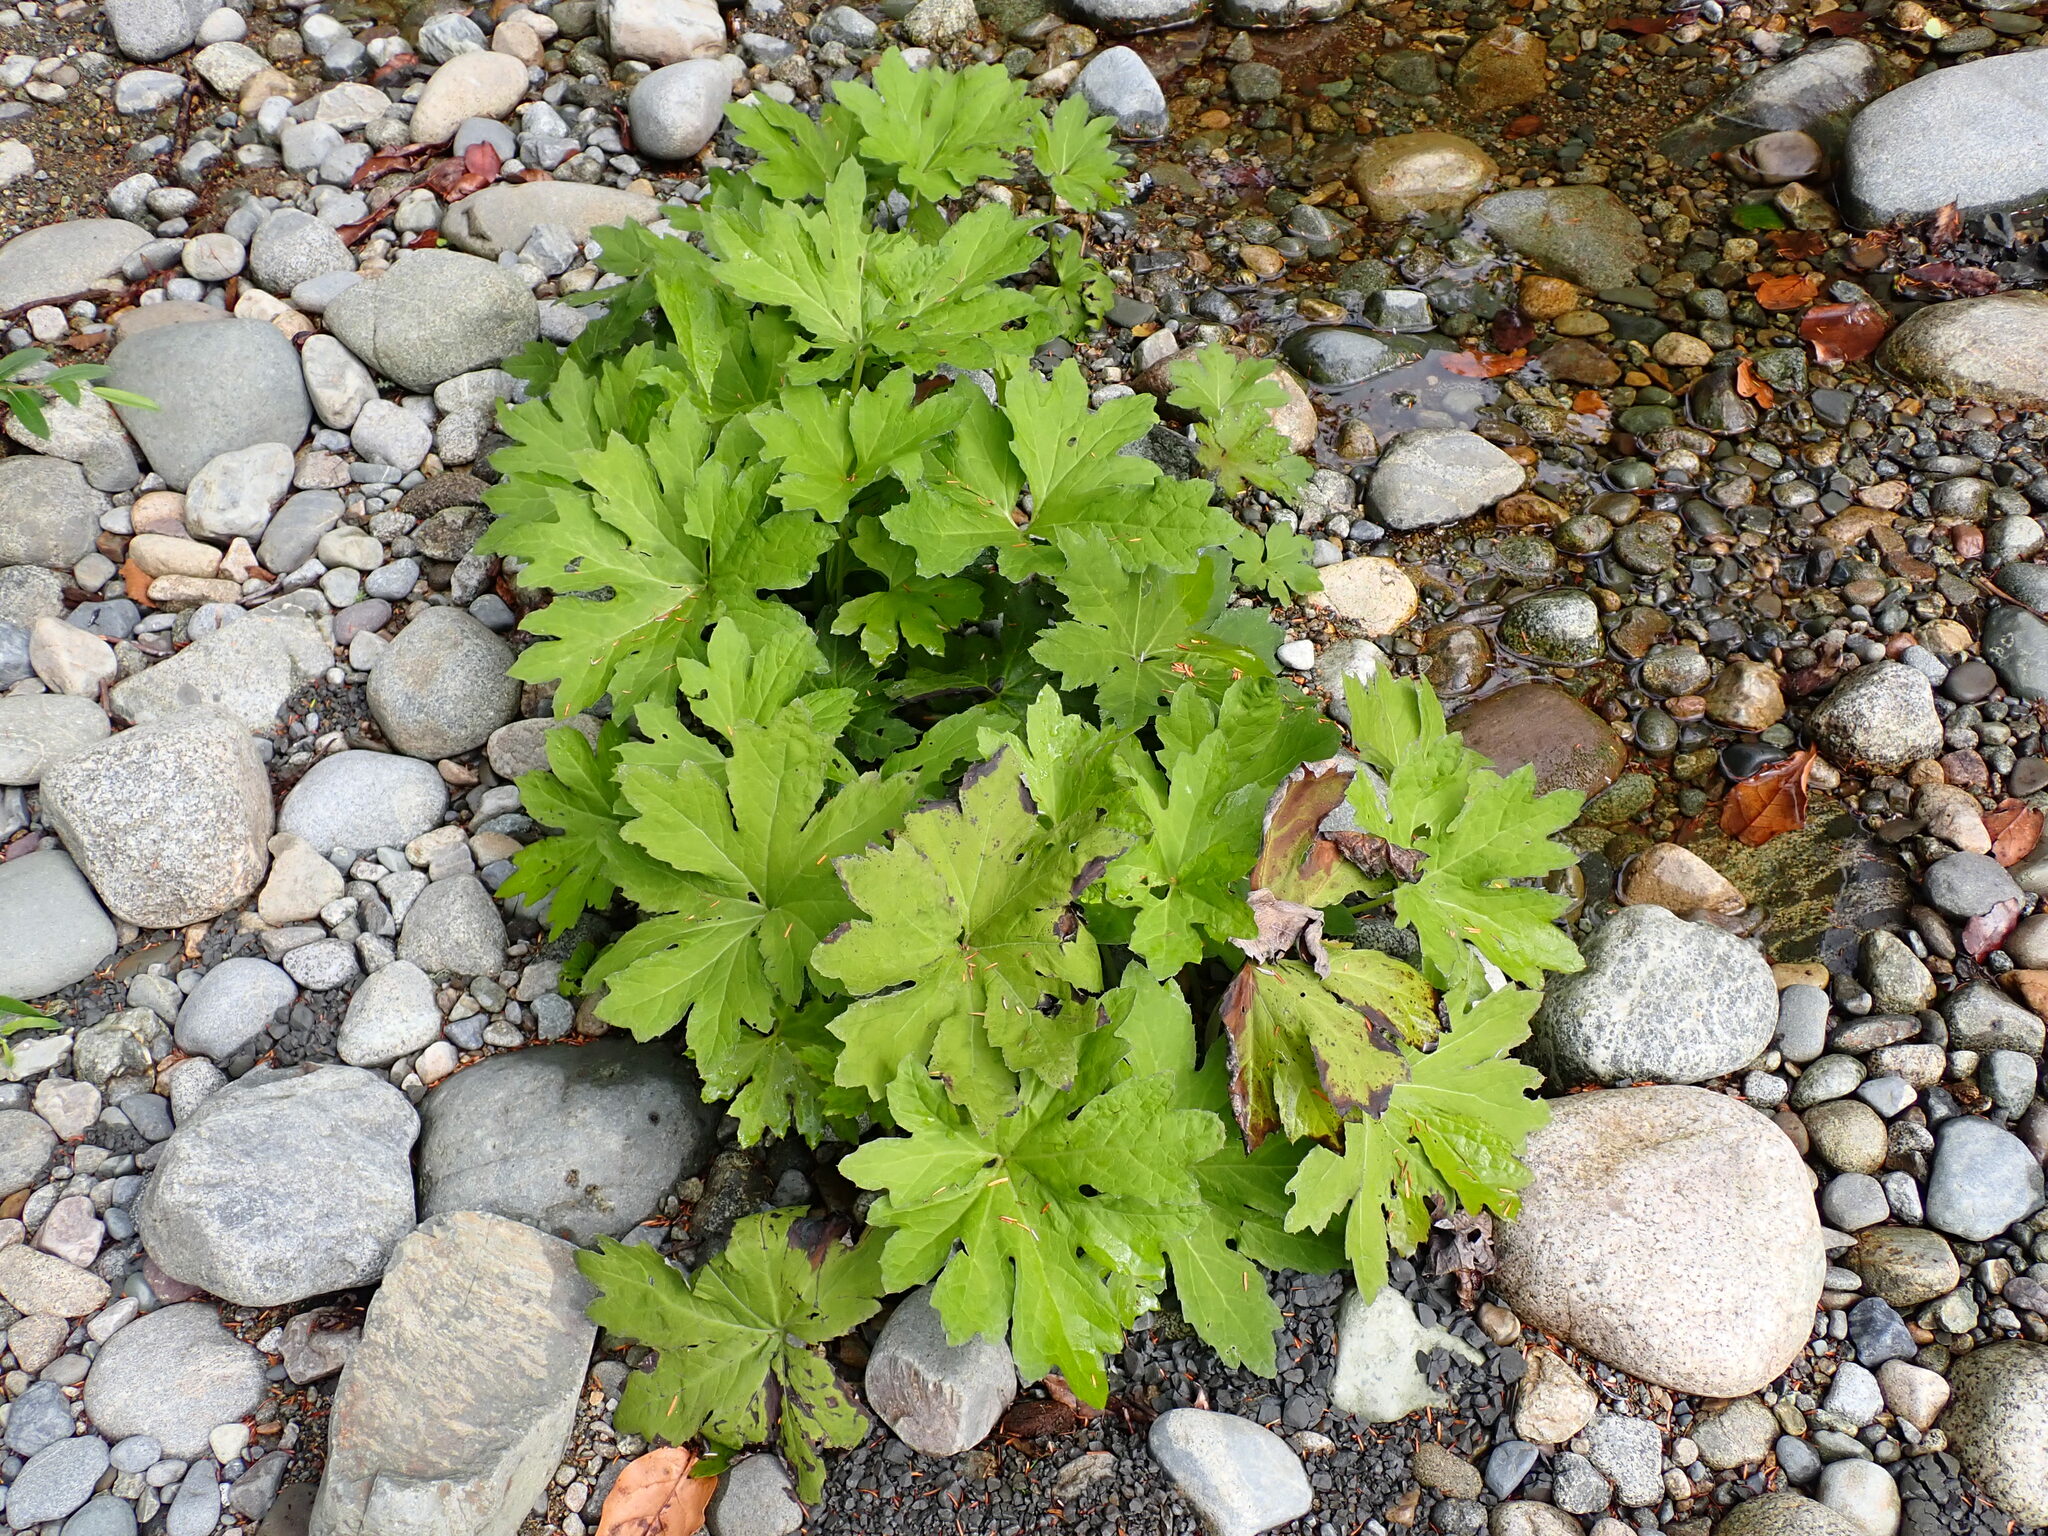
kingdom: Plantae
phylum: Tracheophyta
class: Magnoliopsida
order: Asterales
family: Asteraceae
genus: Petasites
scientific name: Petasites frigidus
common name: Arctic butterbur
